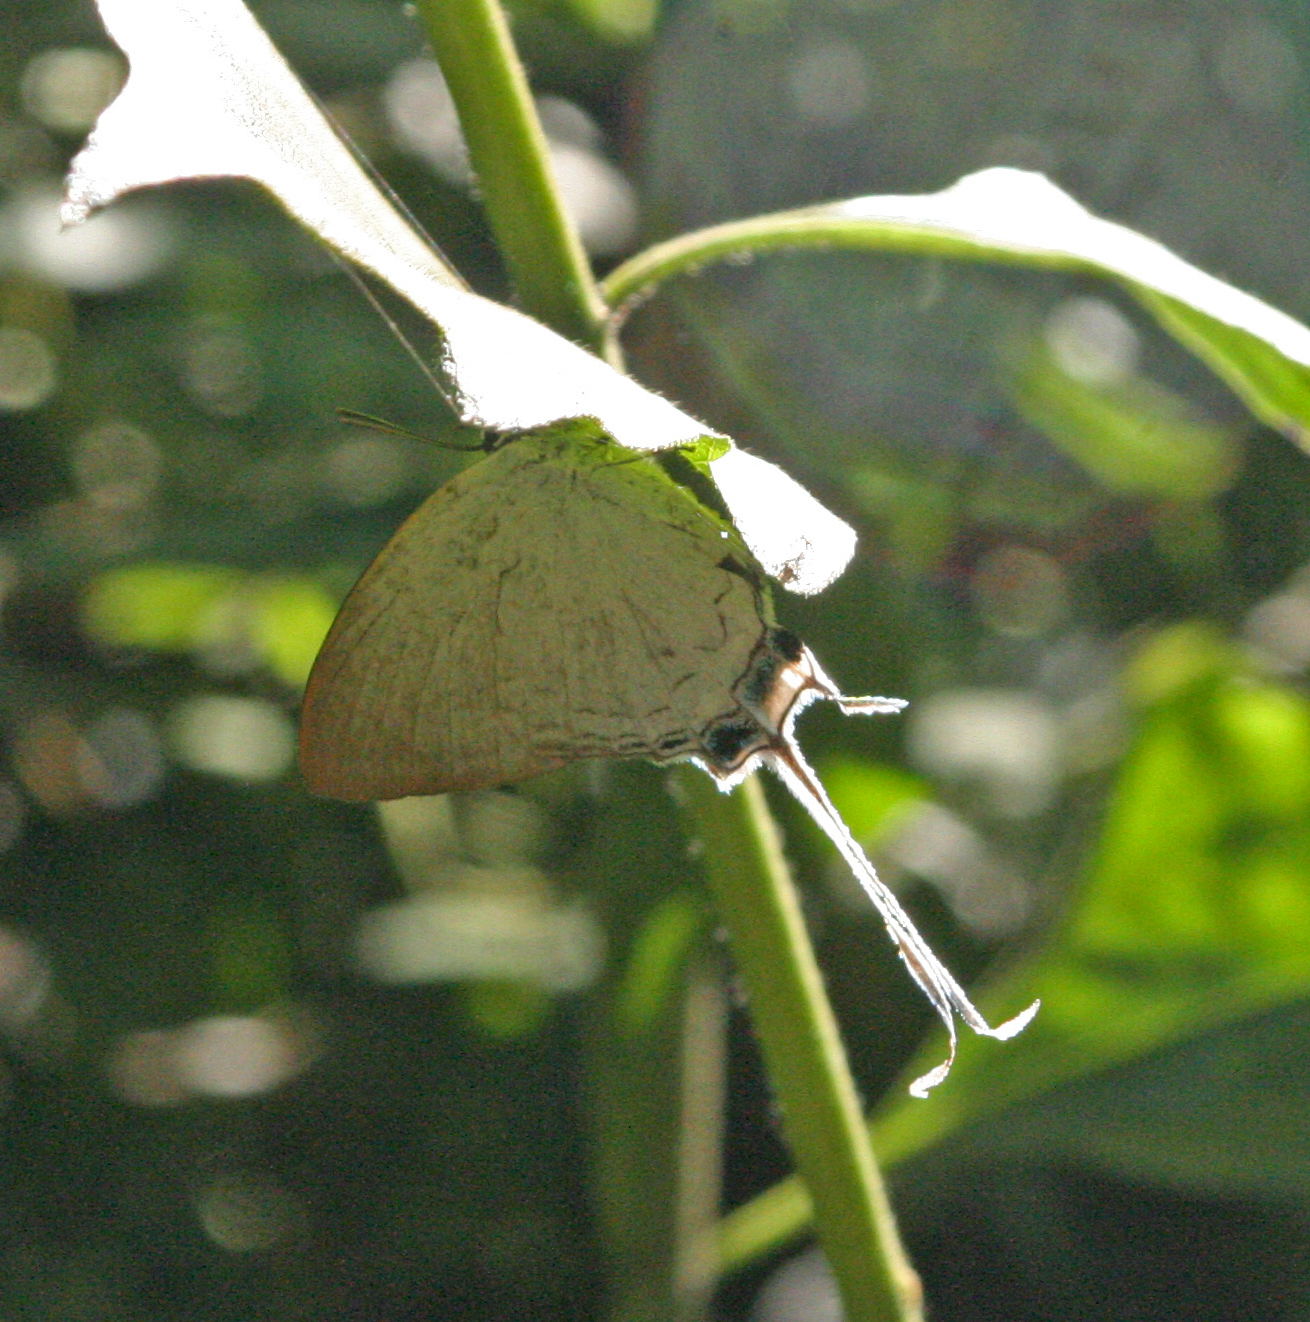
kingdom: Animalia
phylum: Arthropoda
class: Insecta
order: Lepidoptera
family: Lycaenidae
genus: Cheritra
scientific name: Cheritra freja
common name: Common imperial
